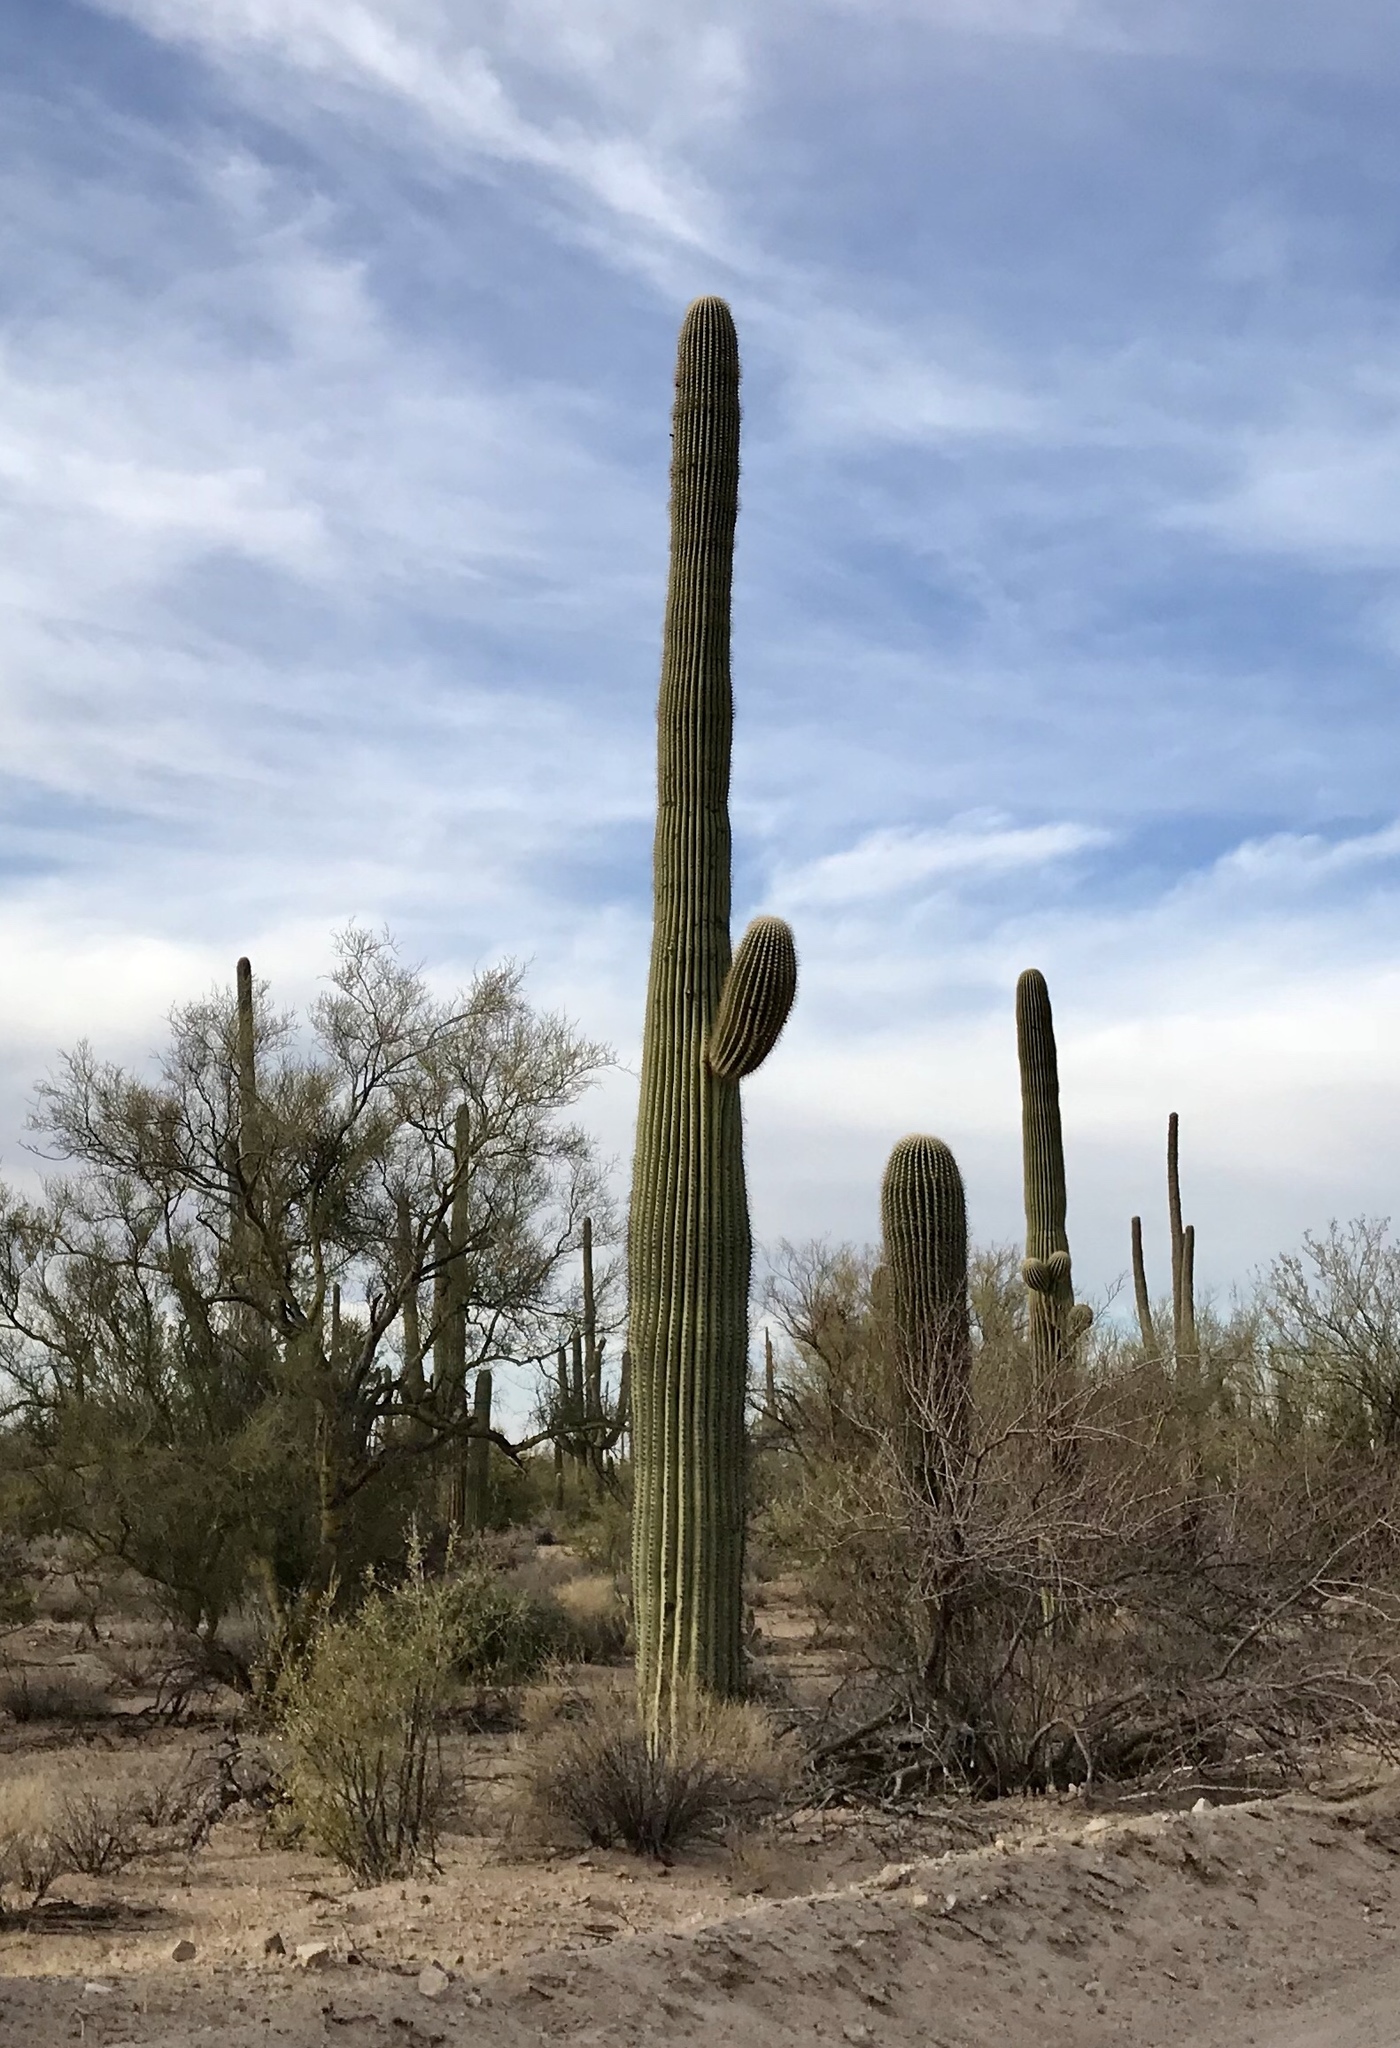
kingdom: Plantae
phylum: Tracheophyta
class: Magnoliopsida
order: Caryophyllales
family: Cactaceae
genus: Carnegiea
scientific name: Carnegiea gigantea
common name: Saguaro
